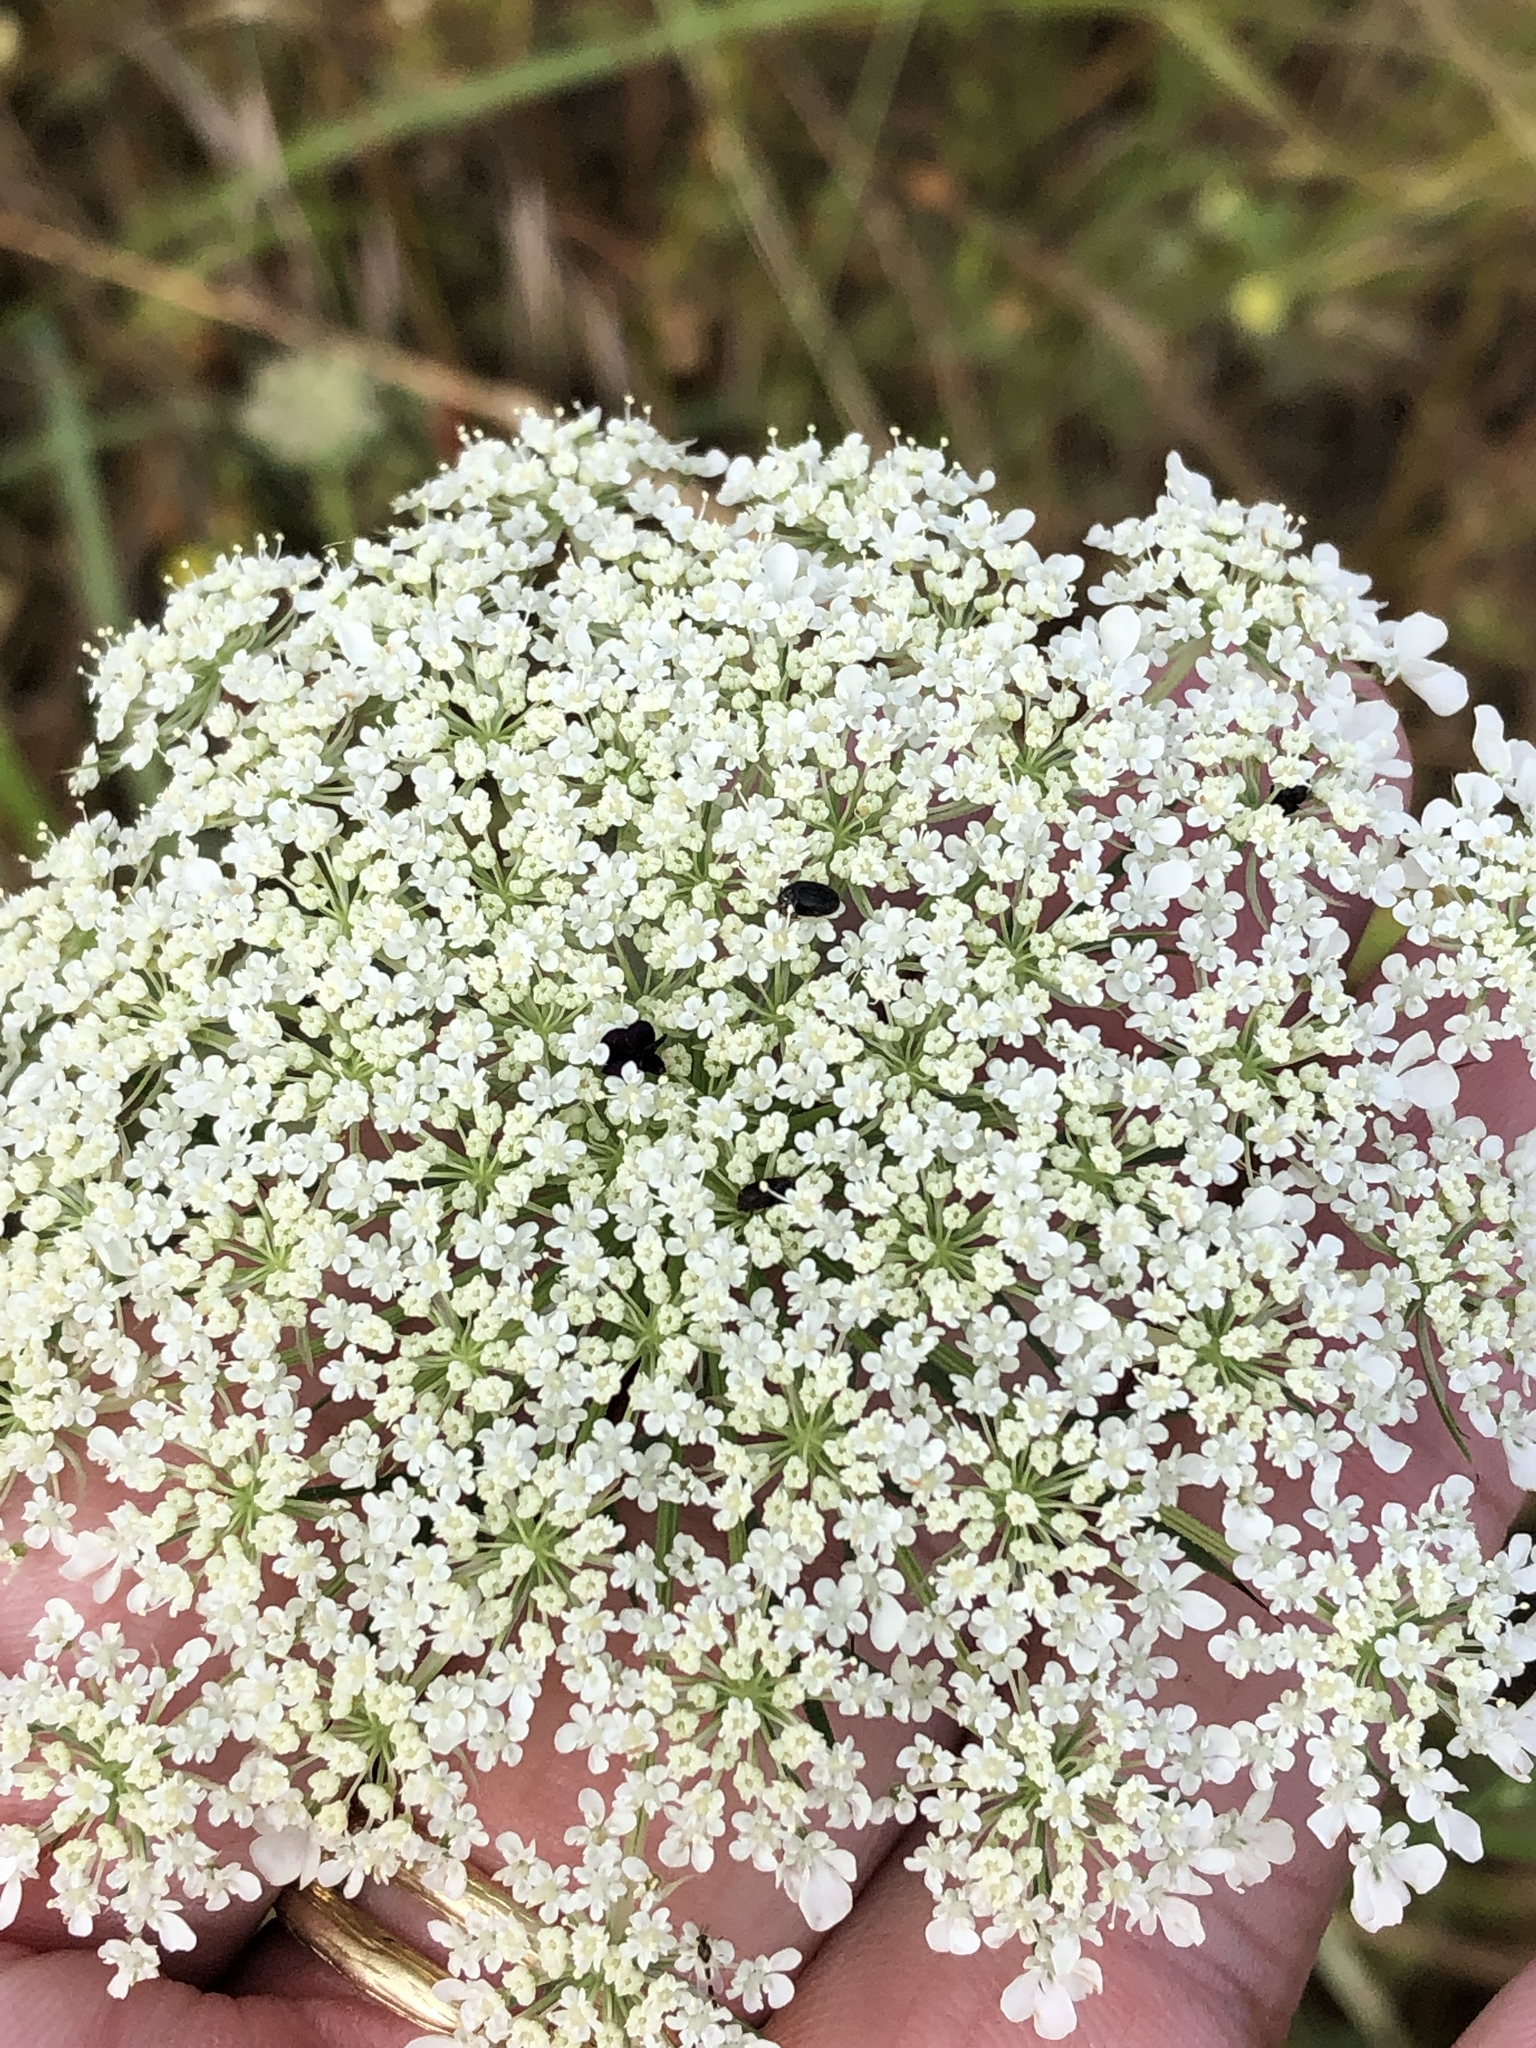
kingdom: Plantae
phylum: Tracheophyta
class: Magnoliopsida
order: Apiales
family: Apiaceae
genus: Daucus
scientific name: Daucus carota
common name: Wild carrot
